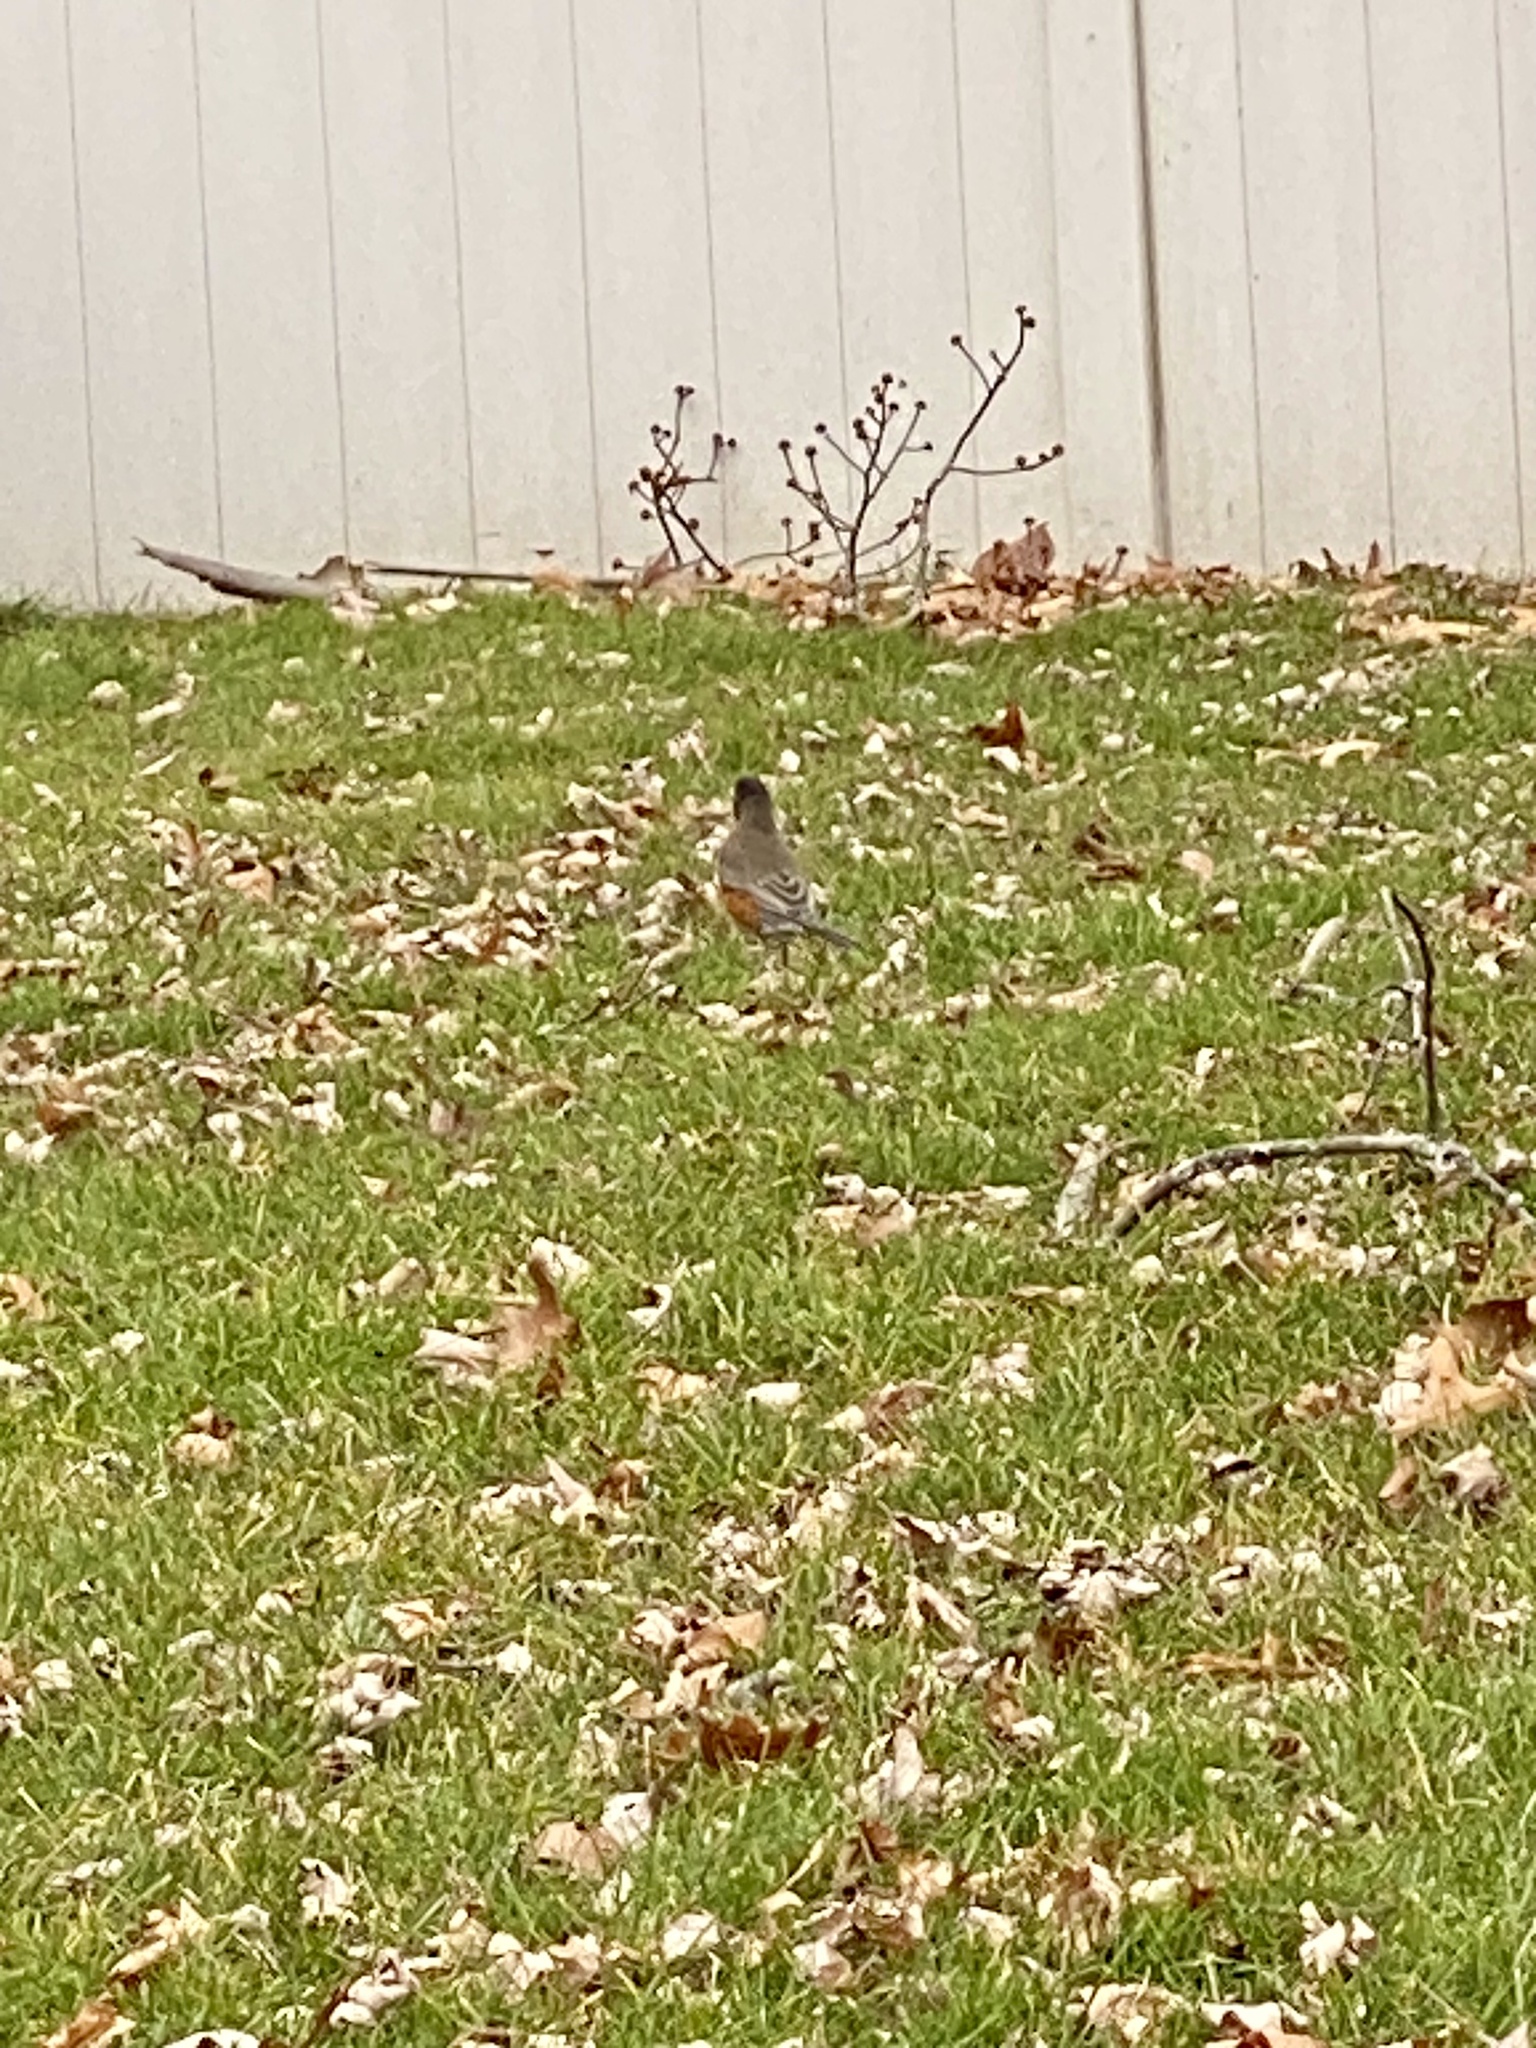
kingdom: Animalia
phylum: Chordata
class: Aves
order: Passeriformes
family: Turdidae
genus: Turdus
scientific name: Turdus migratorius
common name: American robin
